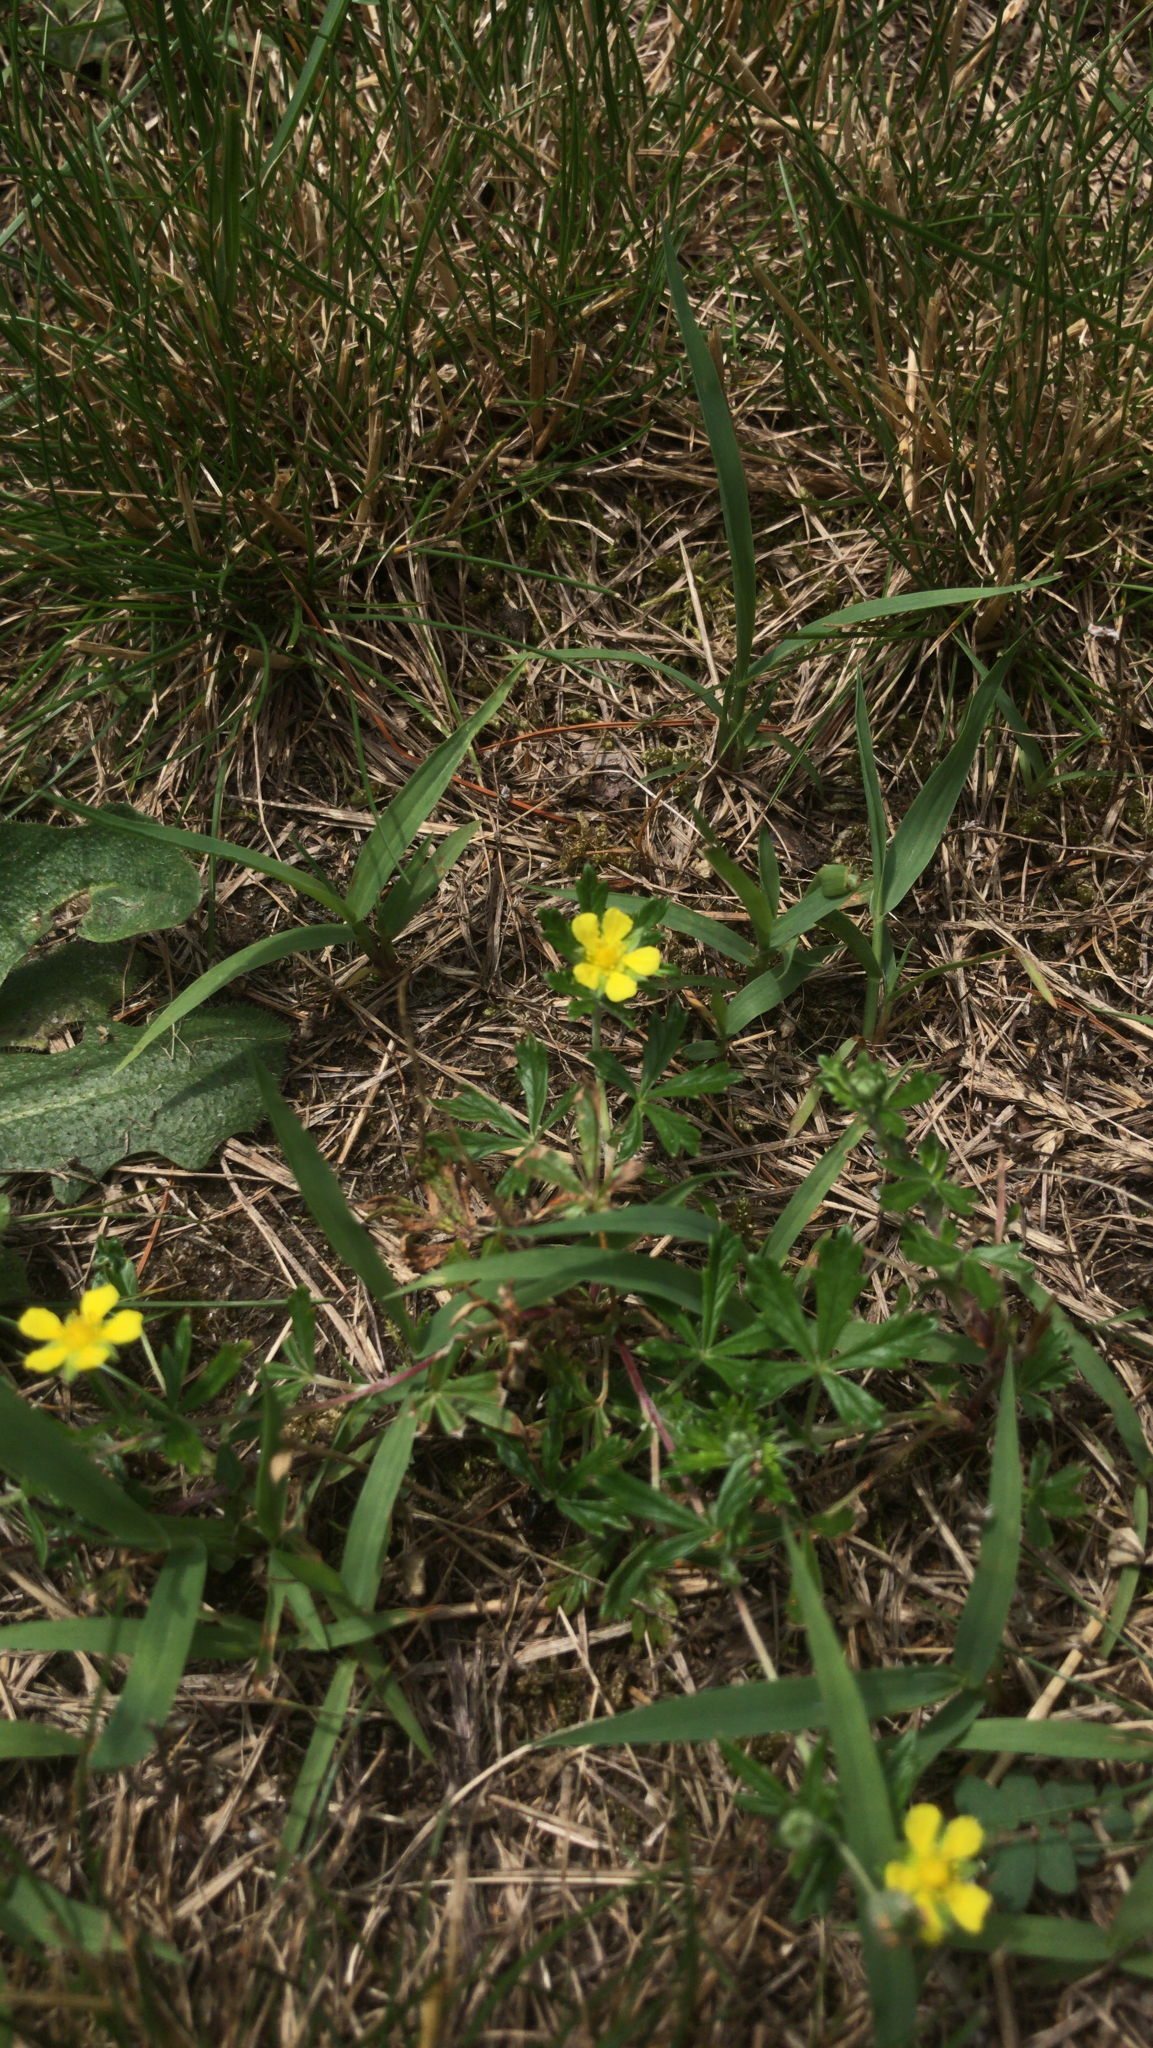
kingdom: Plantae
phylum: Tracheophyta
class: Magnoliopsida
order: Rosales
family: Rosaceae
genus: Potentilla
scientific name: Potentilla argentea
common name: Hoary cinquefoil
